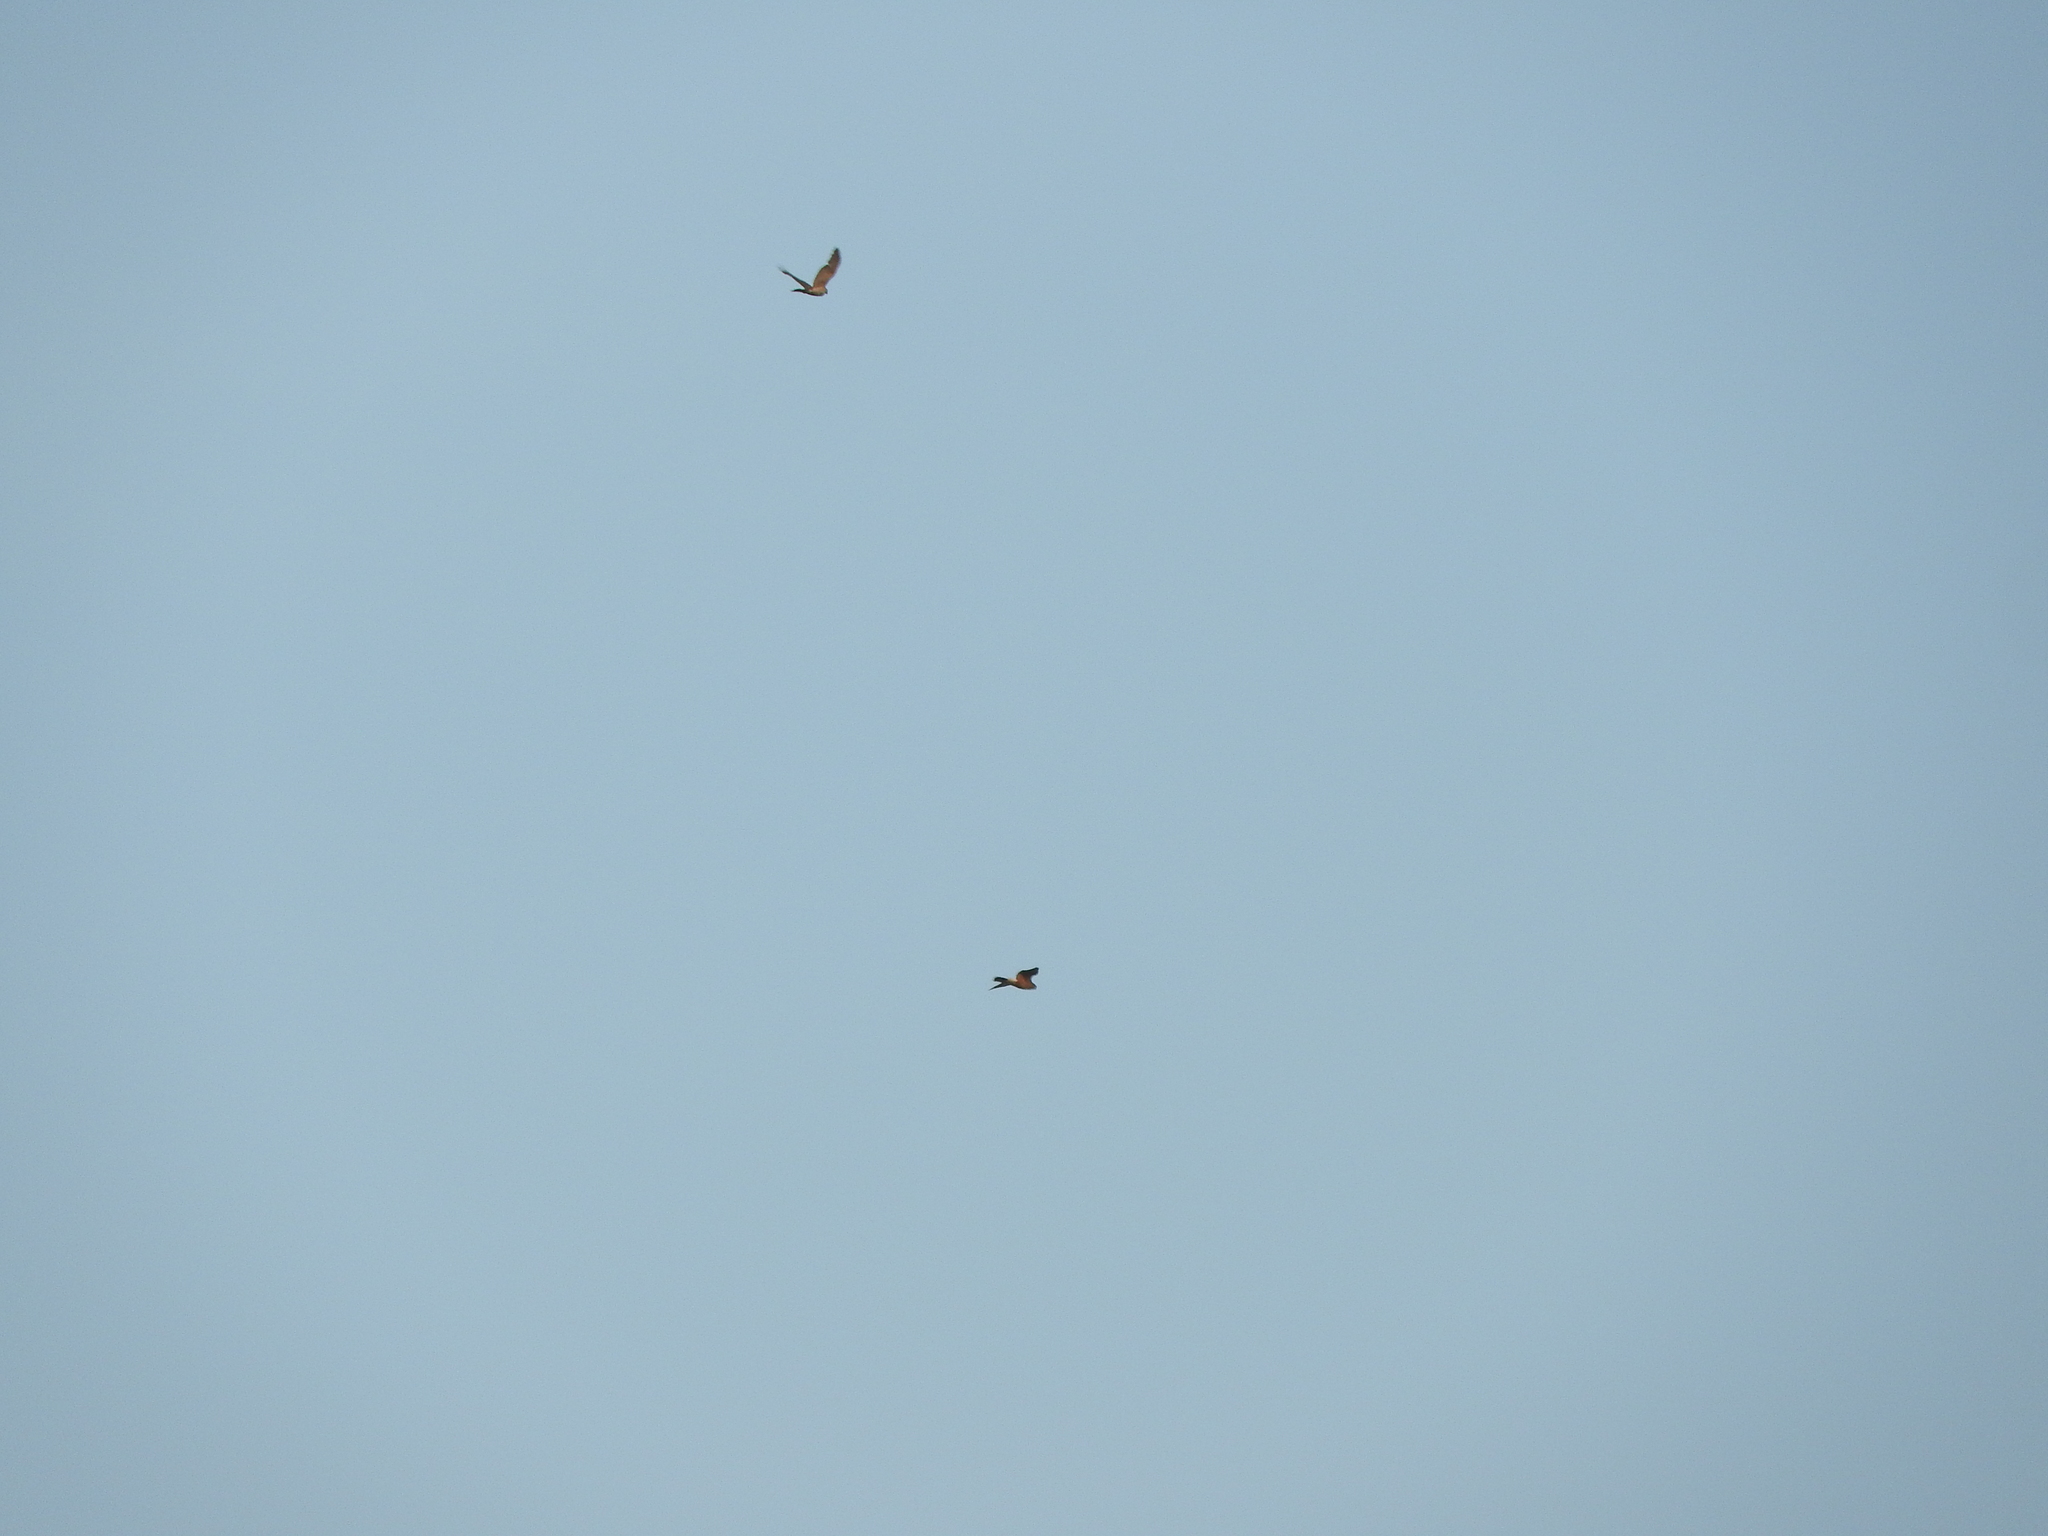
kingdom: Animalia
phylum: Chordata
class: Aves
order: Falconiformes
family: Falconidae
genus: Falco
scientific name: Falco peregrinus
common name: Peregrine falcon
